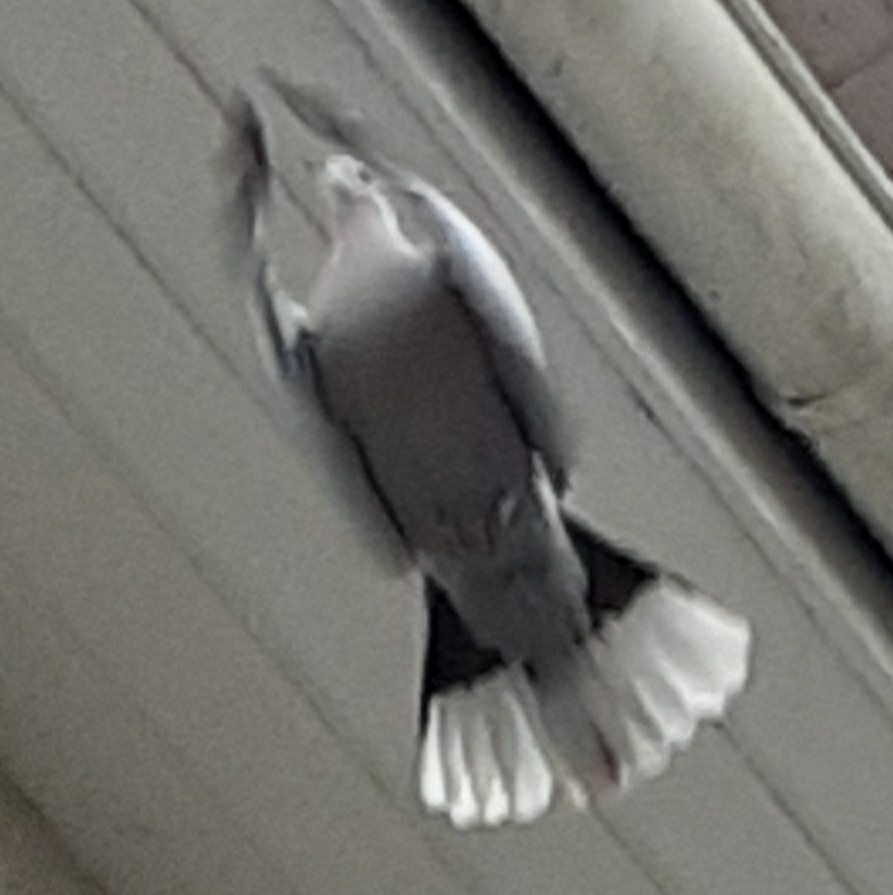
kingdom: Animalia
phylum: Chordata
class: Aves
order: Columbiformes
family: Columbidae
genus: Streptopelia
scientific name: Streptopelia decaocto
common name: Eurasian collared dove
